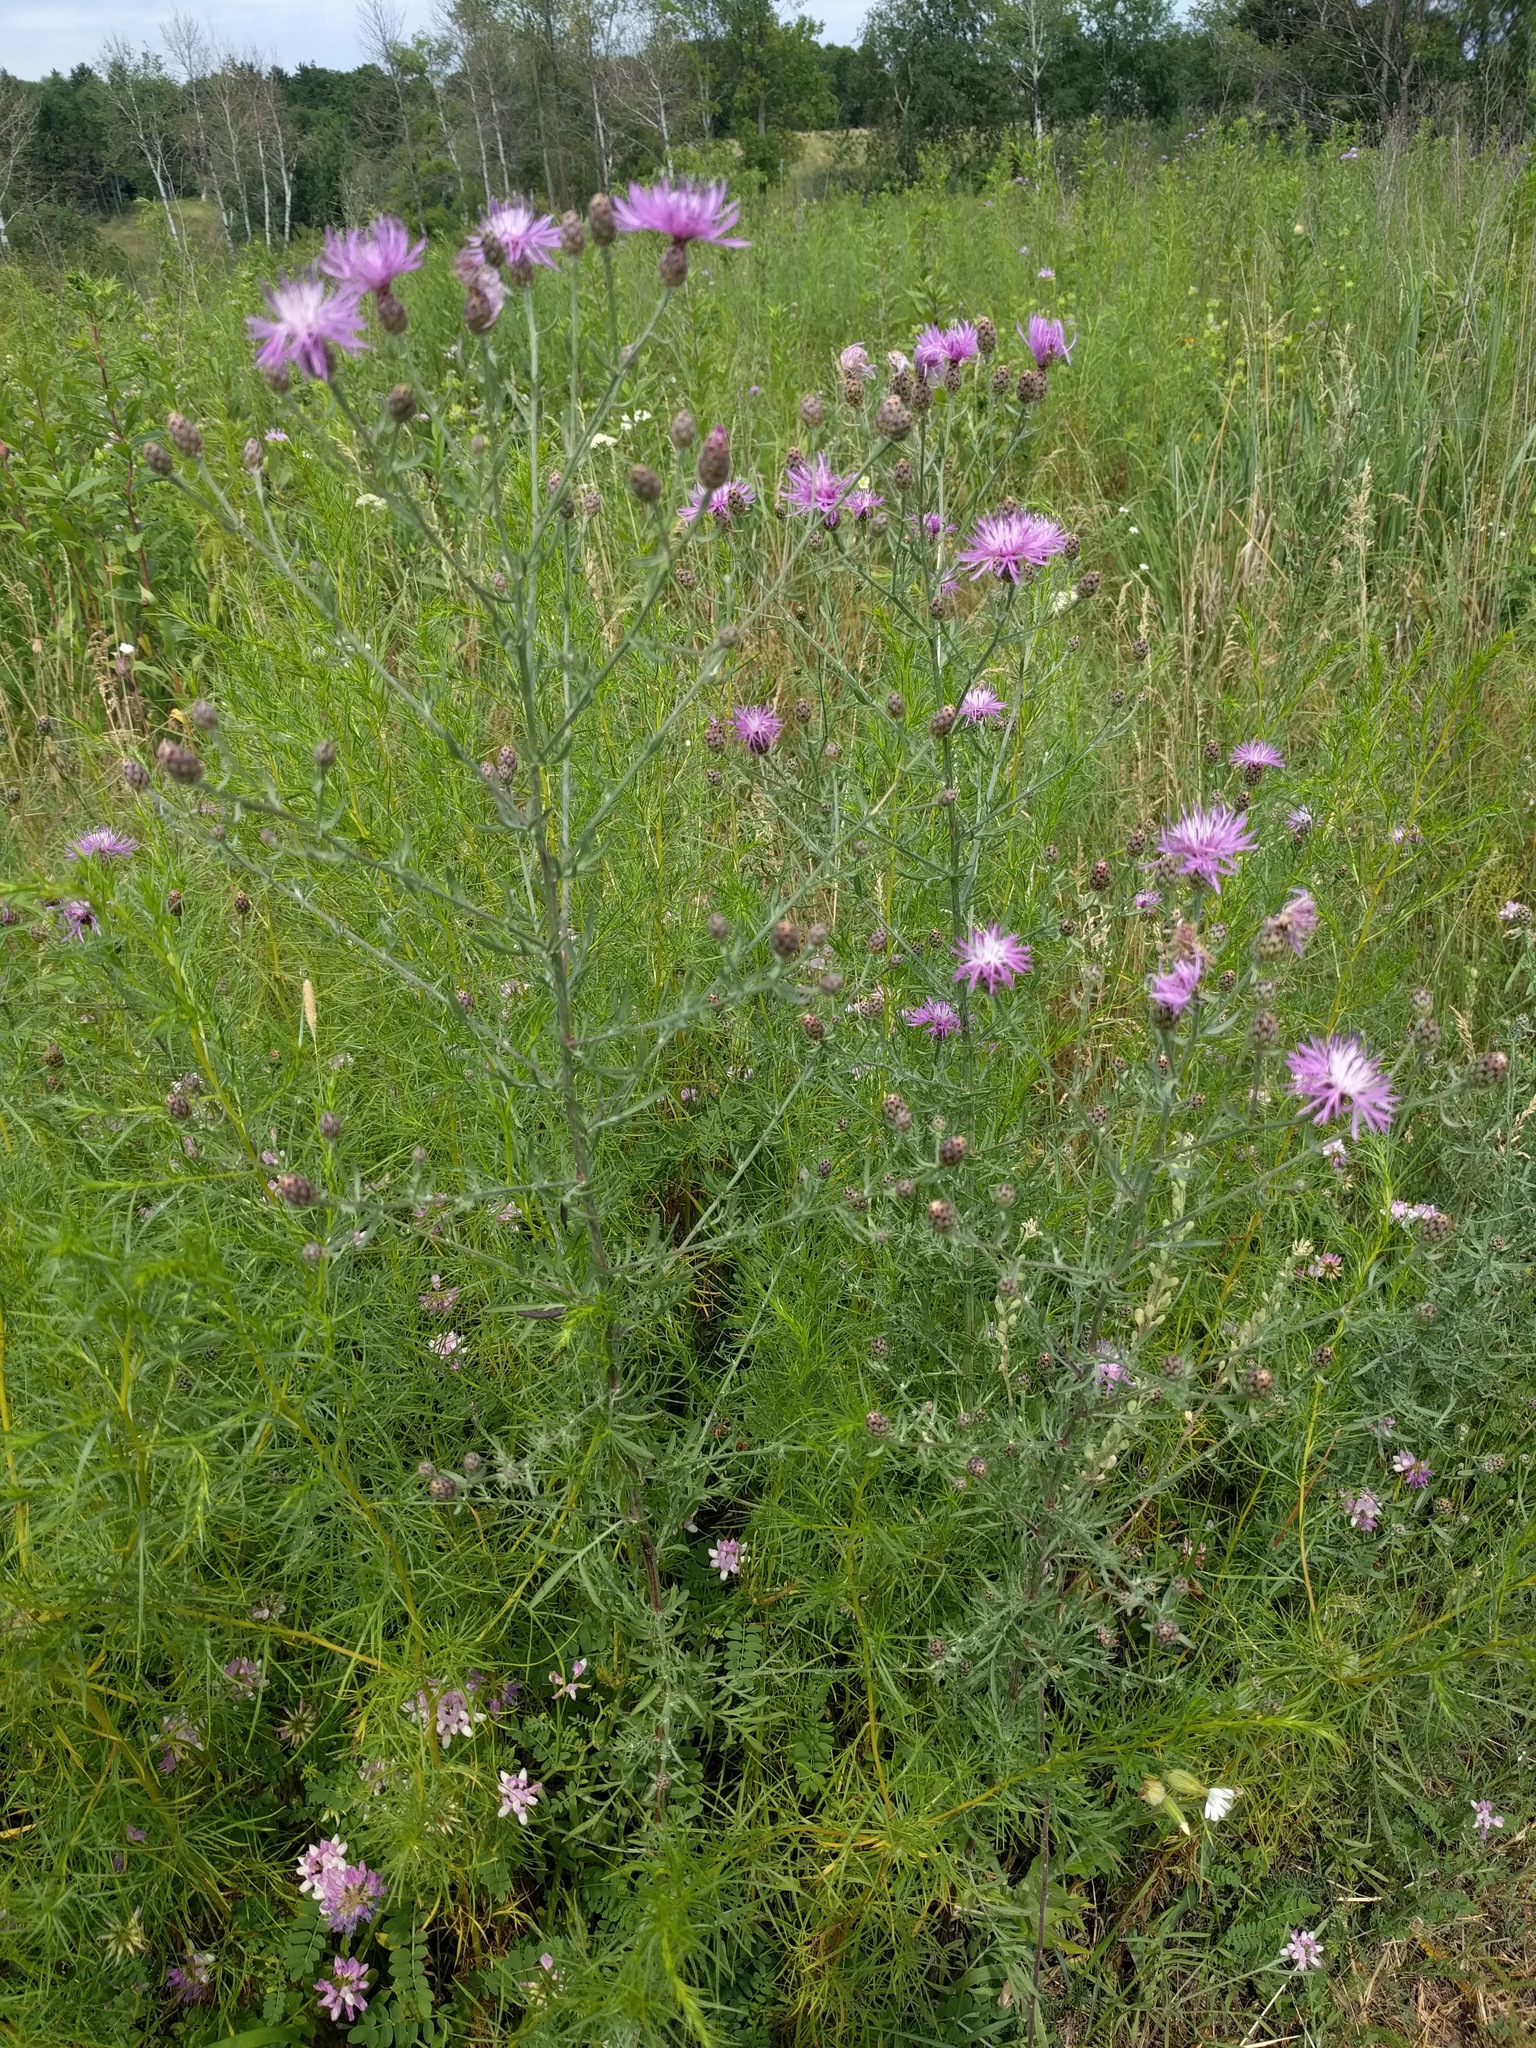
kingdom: Plantae
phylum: Tracheophyta
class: Magnoliopsida
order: Asterales
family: Asteraceae
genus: Centaurea
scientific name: Centaurea stoebe
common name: Spotted knapweed
